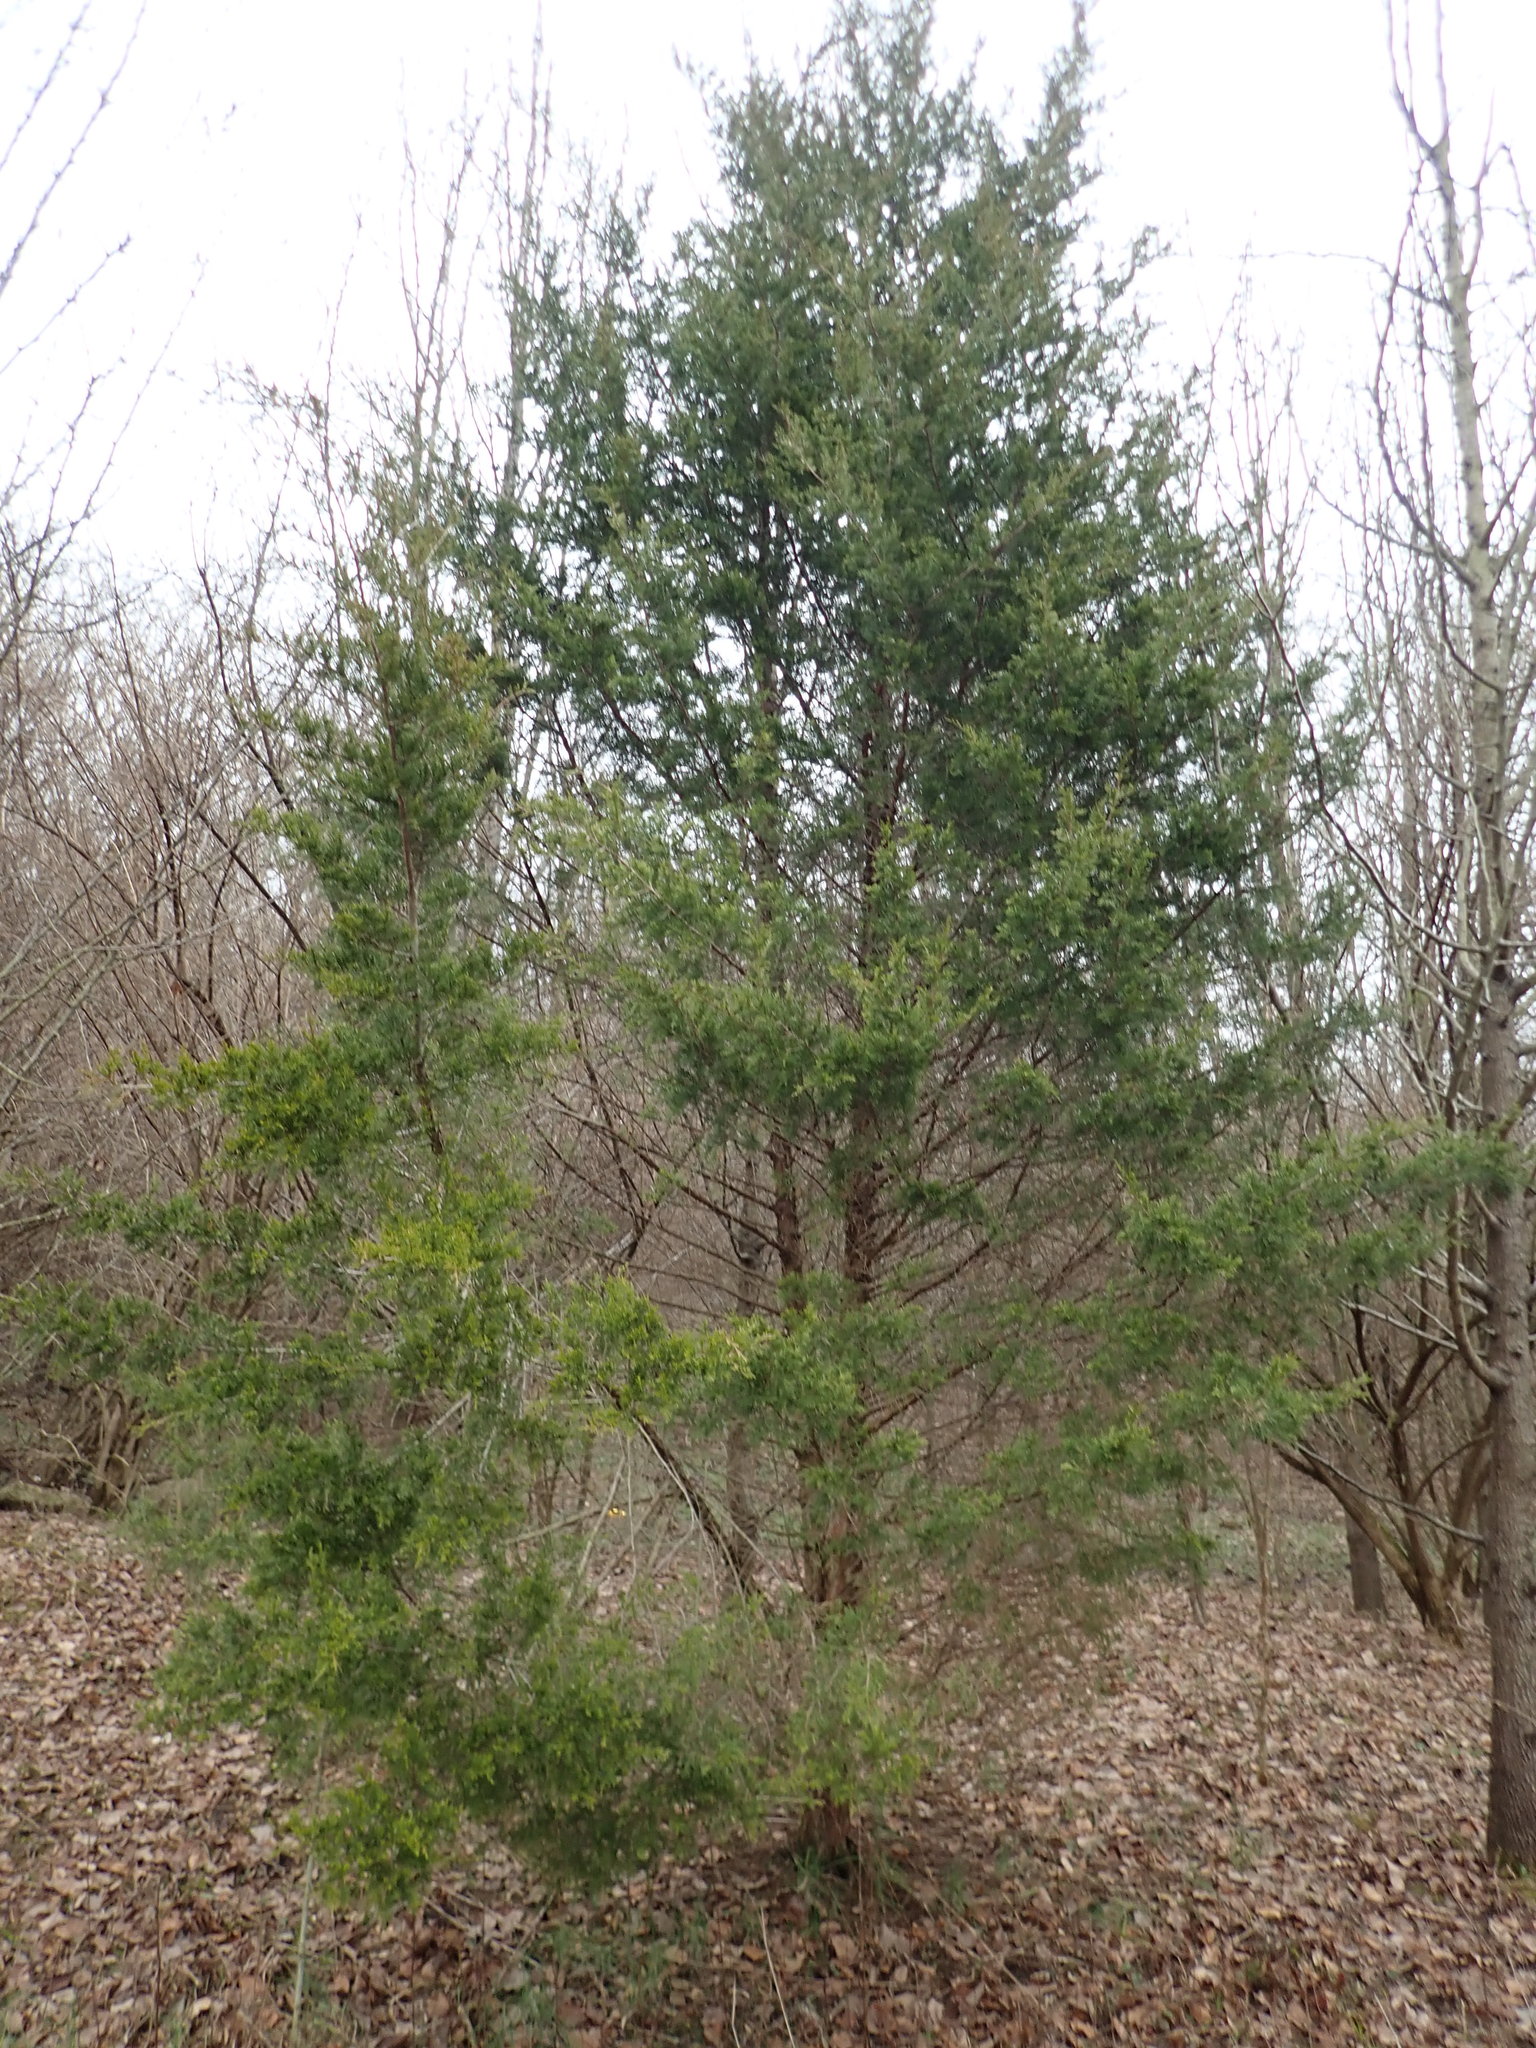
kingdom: Plantae
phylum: Tracheophyta
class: Pinopsida
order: Pinales
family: Cupressaceae
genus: Juniperus
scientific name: Juniperus virginiana
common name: Red juniper
